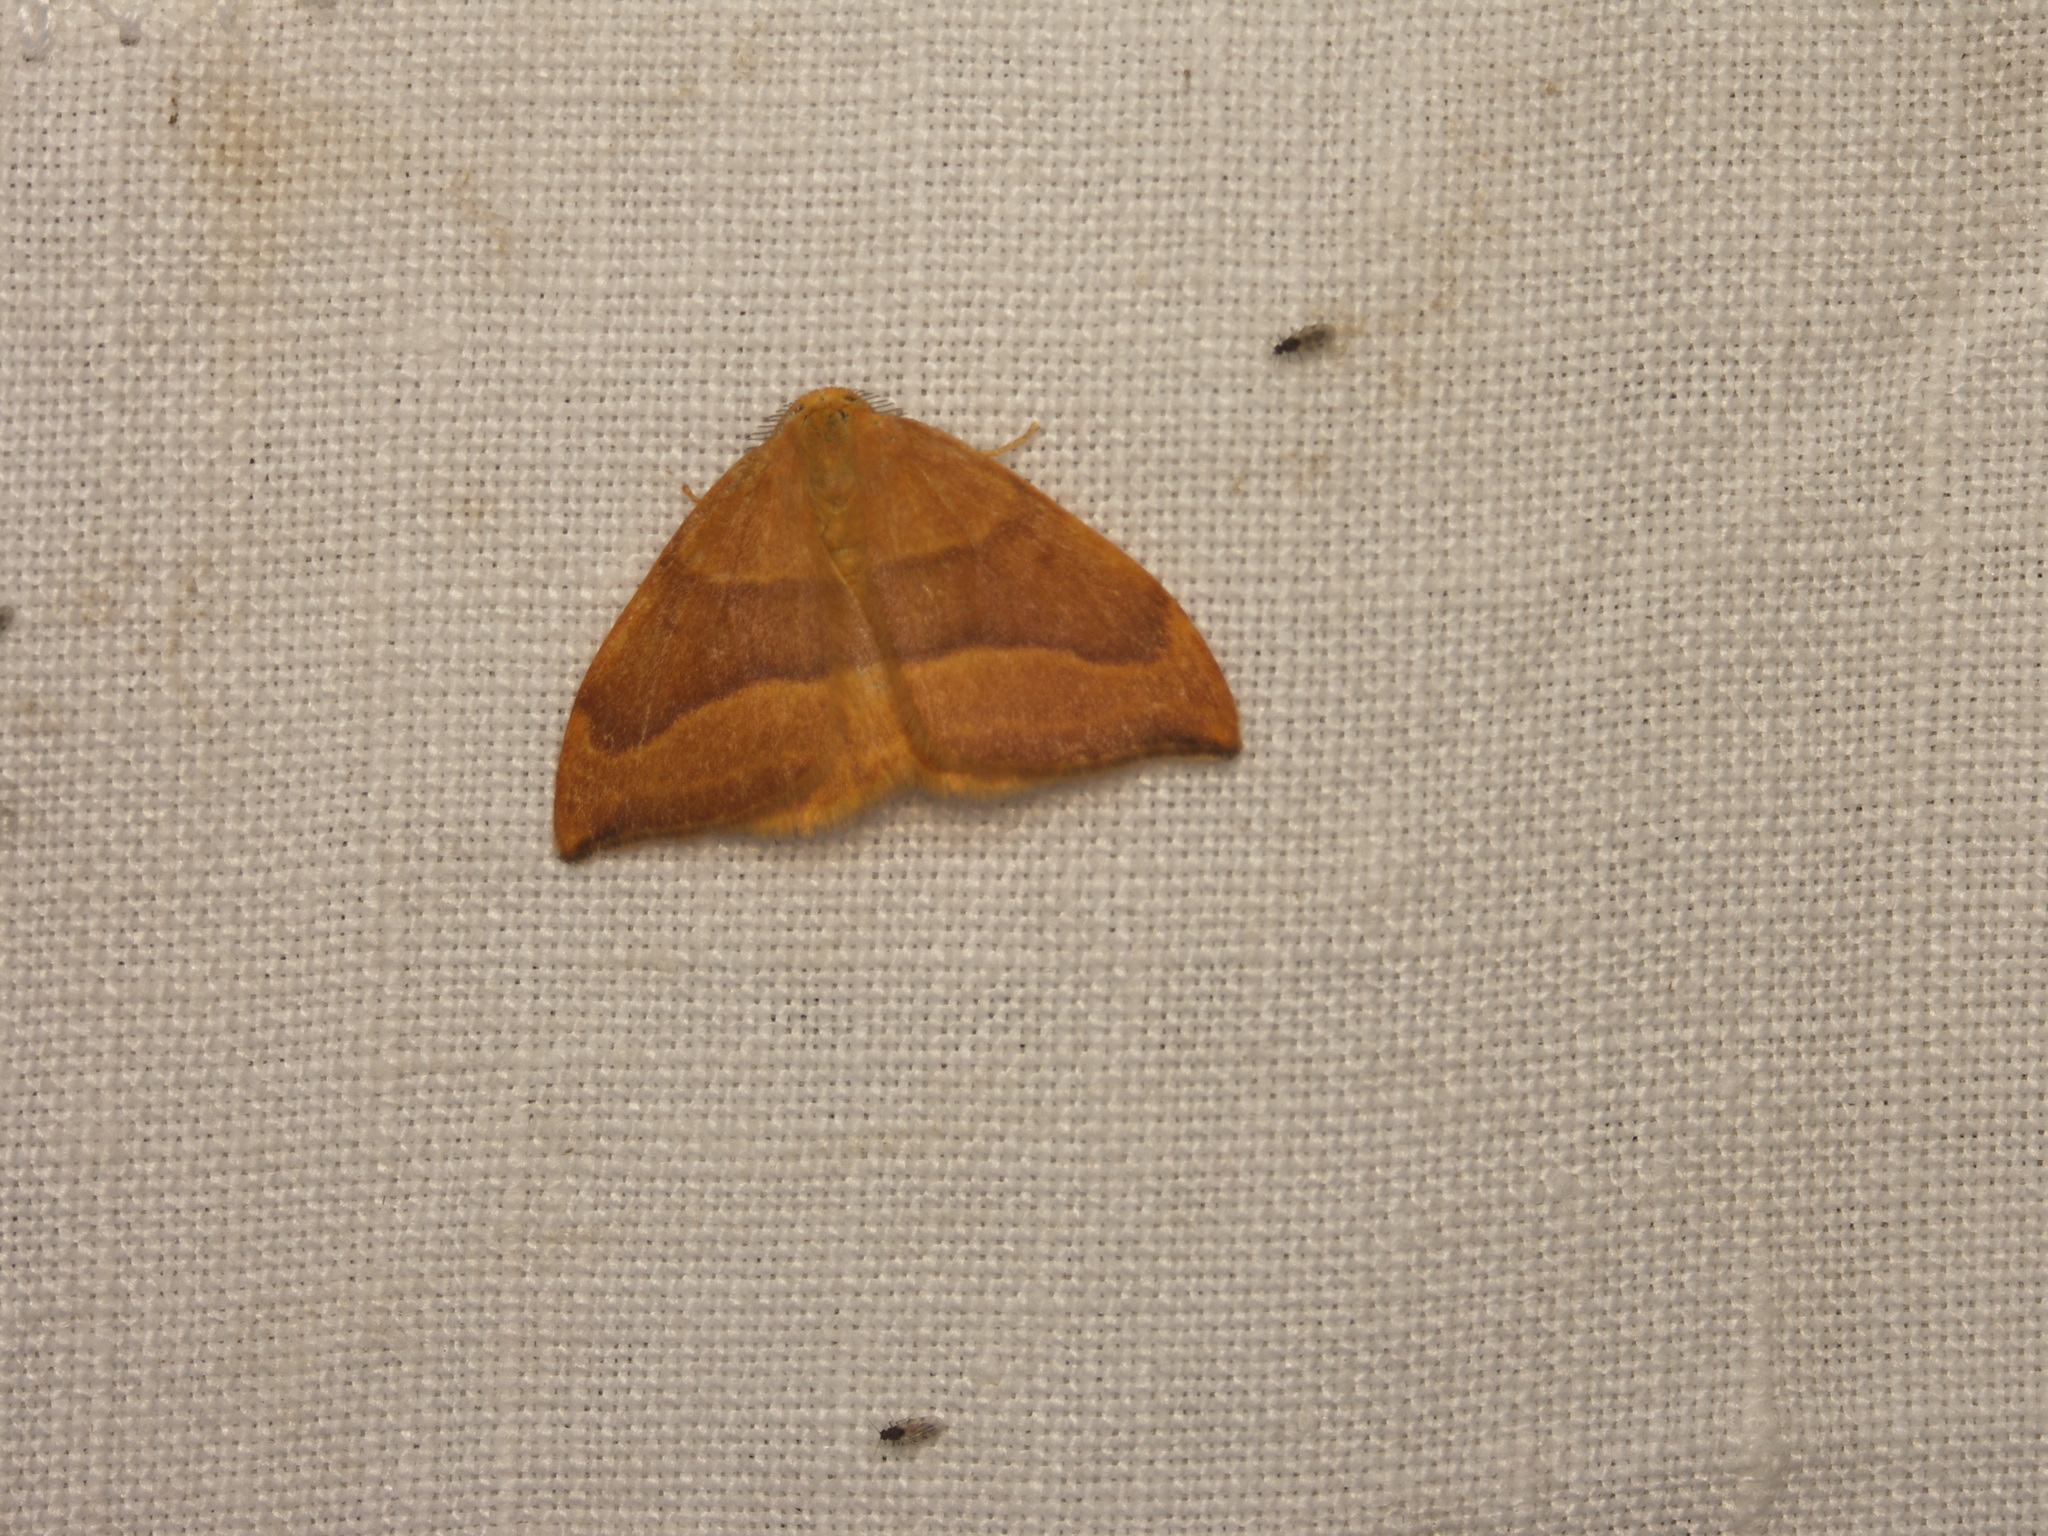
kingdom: Animalia
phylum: Arthropoda
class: Insecta
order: Lepidoptera
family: Drepanidae
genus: Watsonalla
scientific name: Watsonalla cultraria
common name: Barred hook-tip
